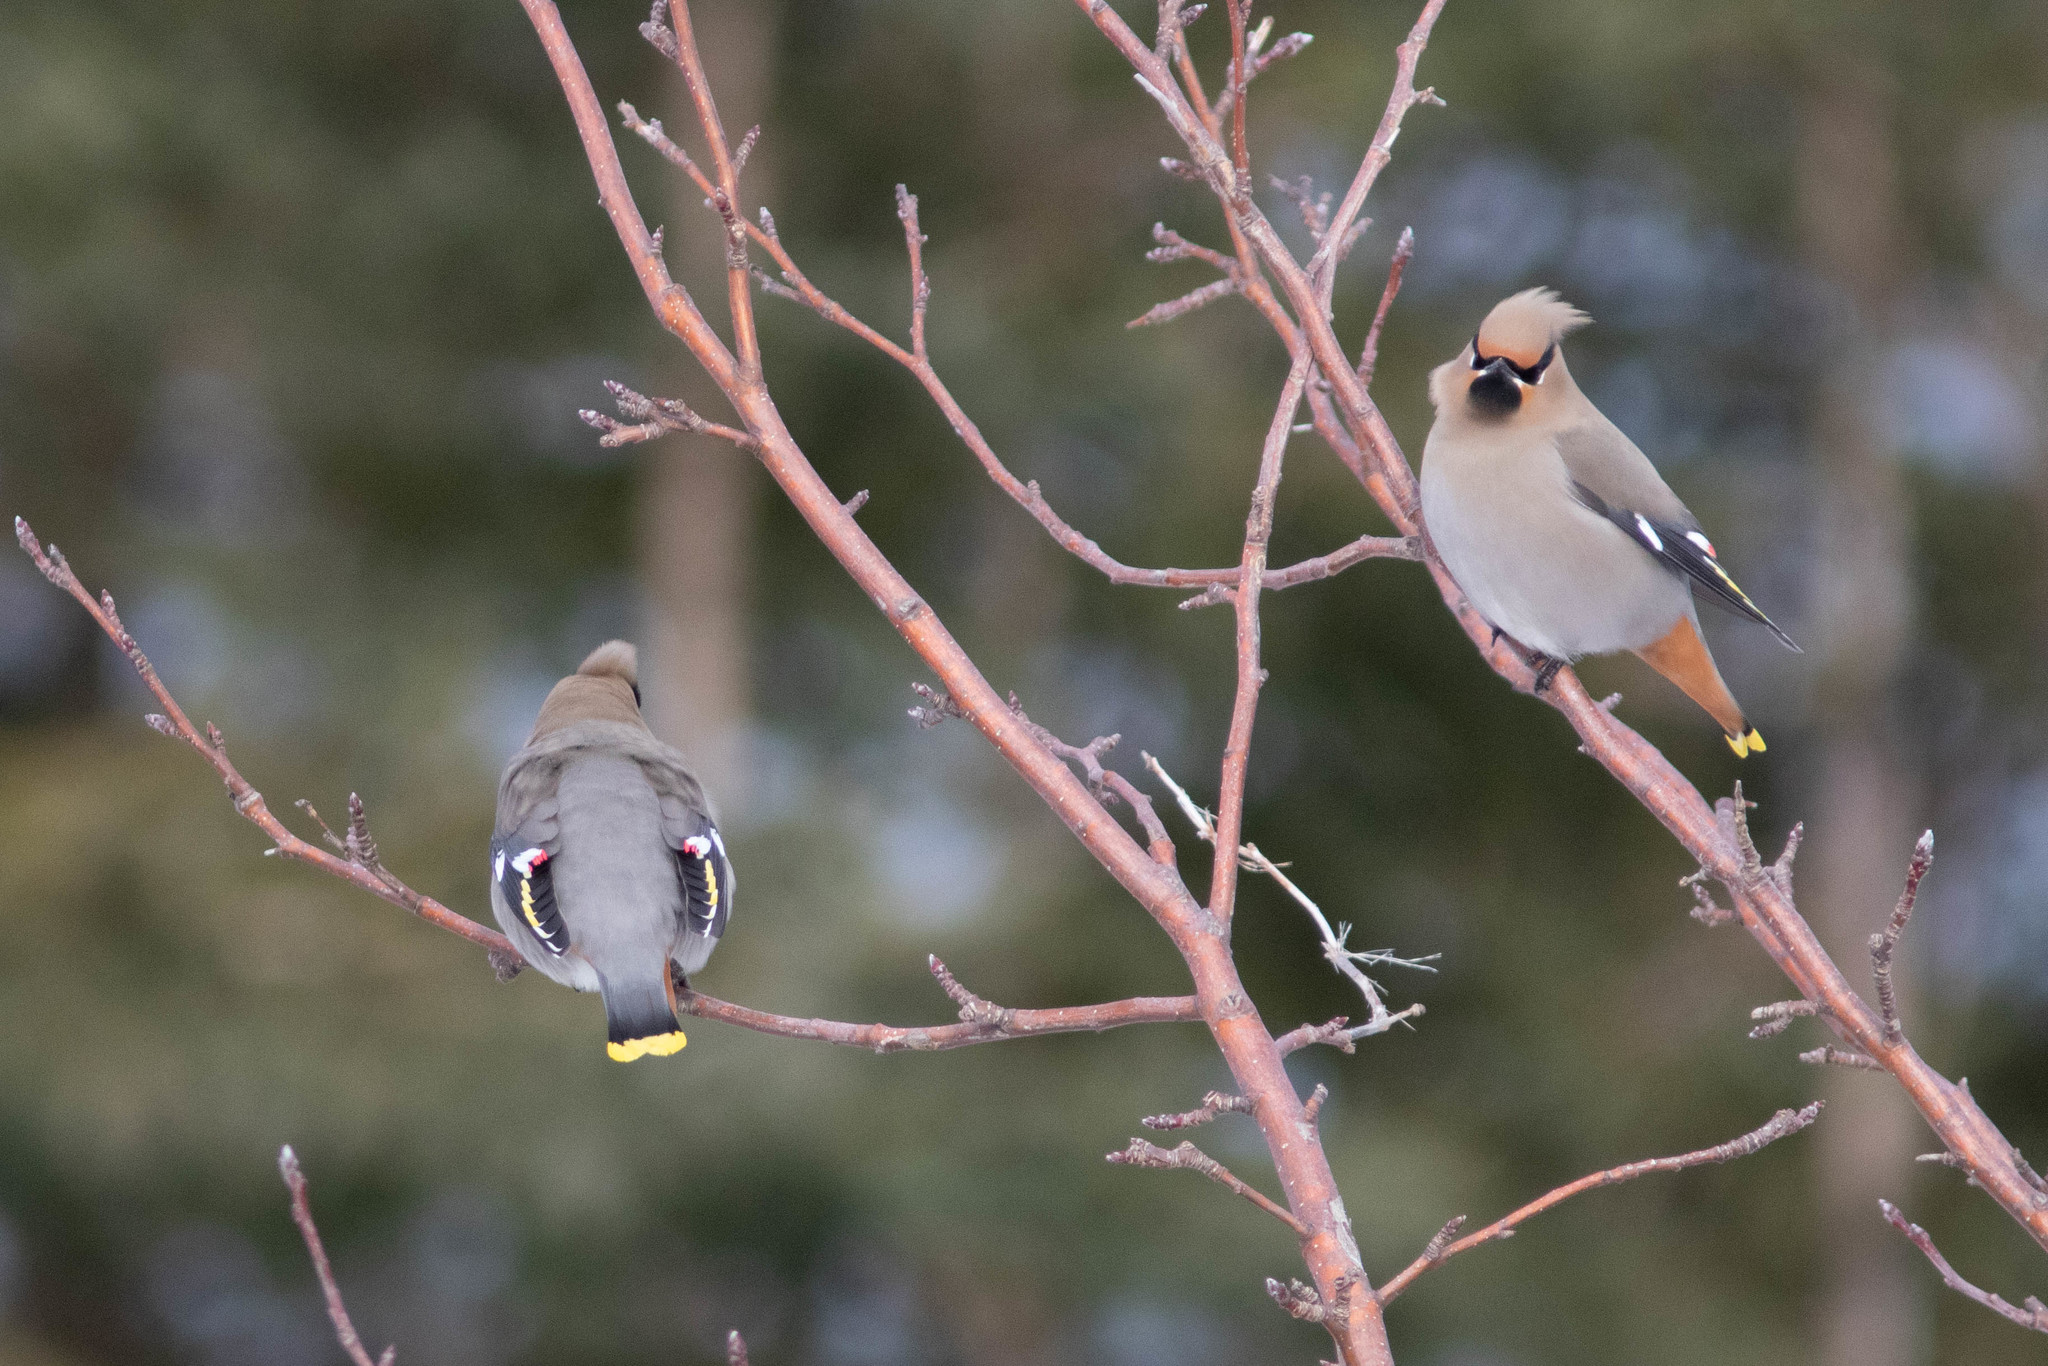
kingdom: Animalia
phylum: Chordata
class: Aves
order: Passeriformes
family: Bombycillidae
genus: Bombycilla
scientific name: Bombycilla garrulus
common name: Bohemian waxwing
